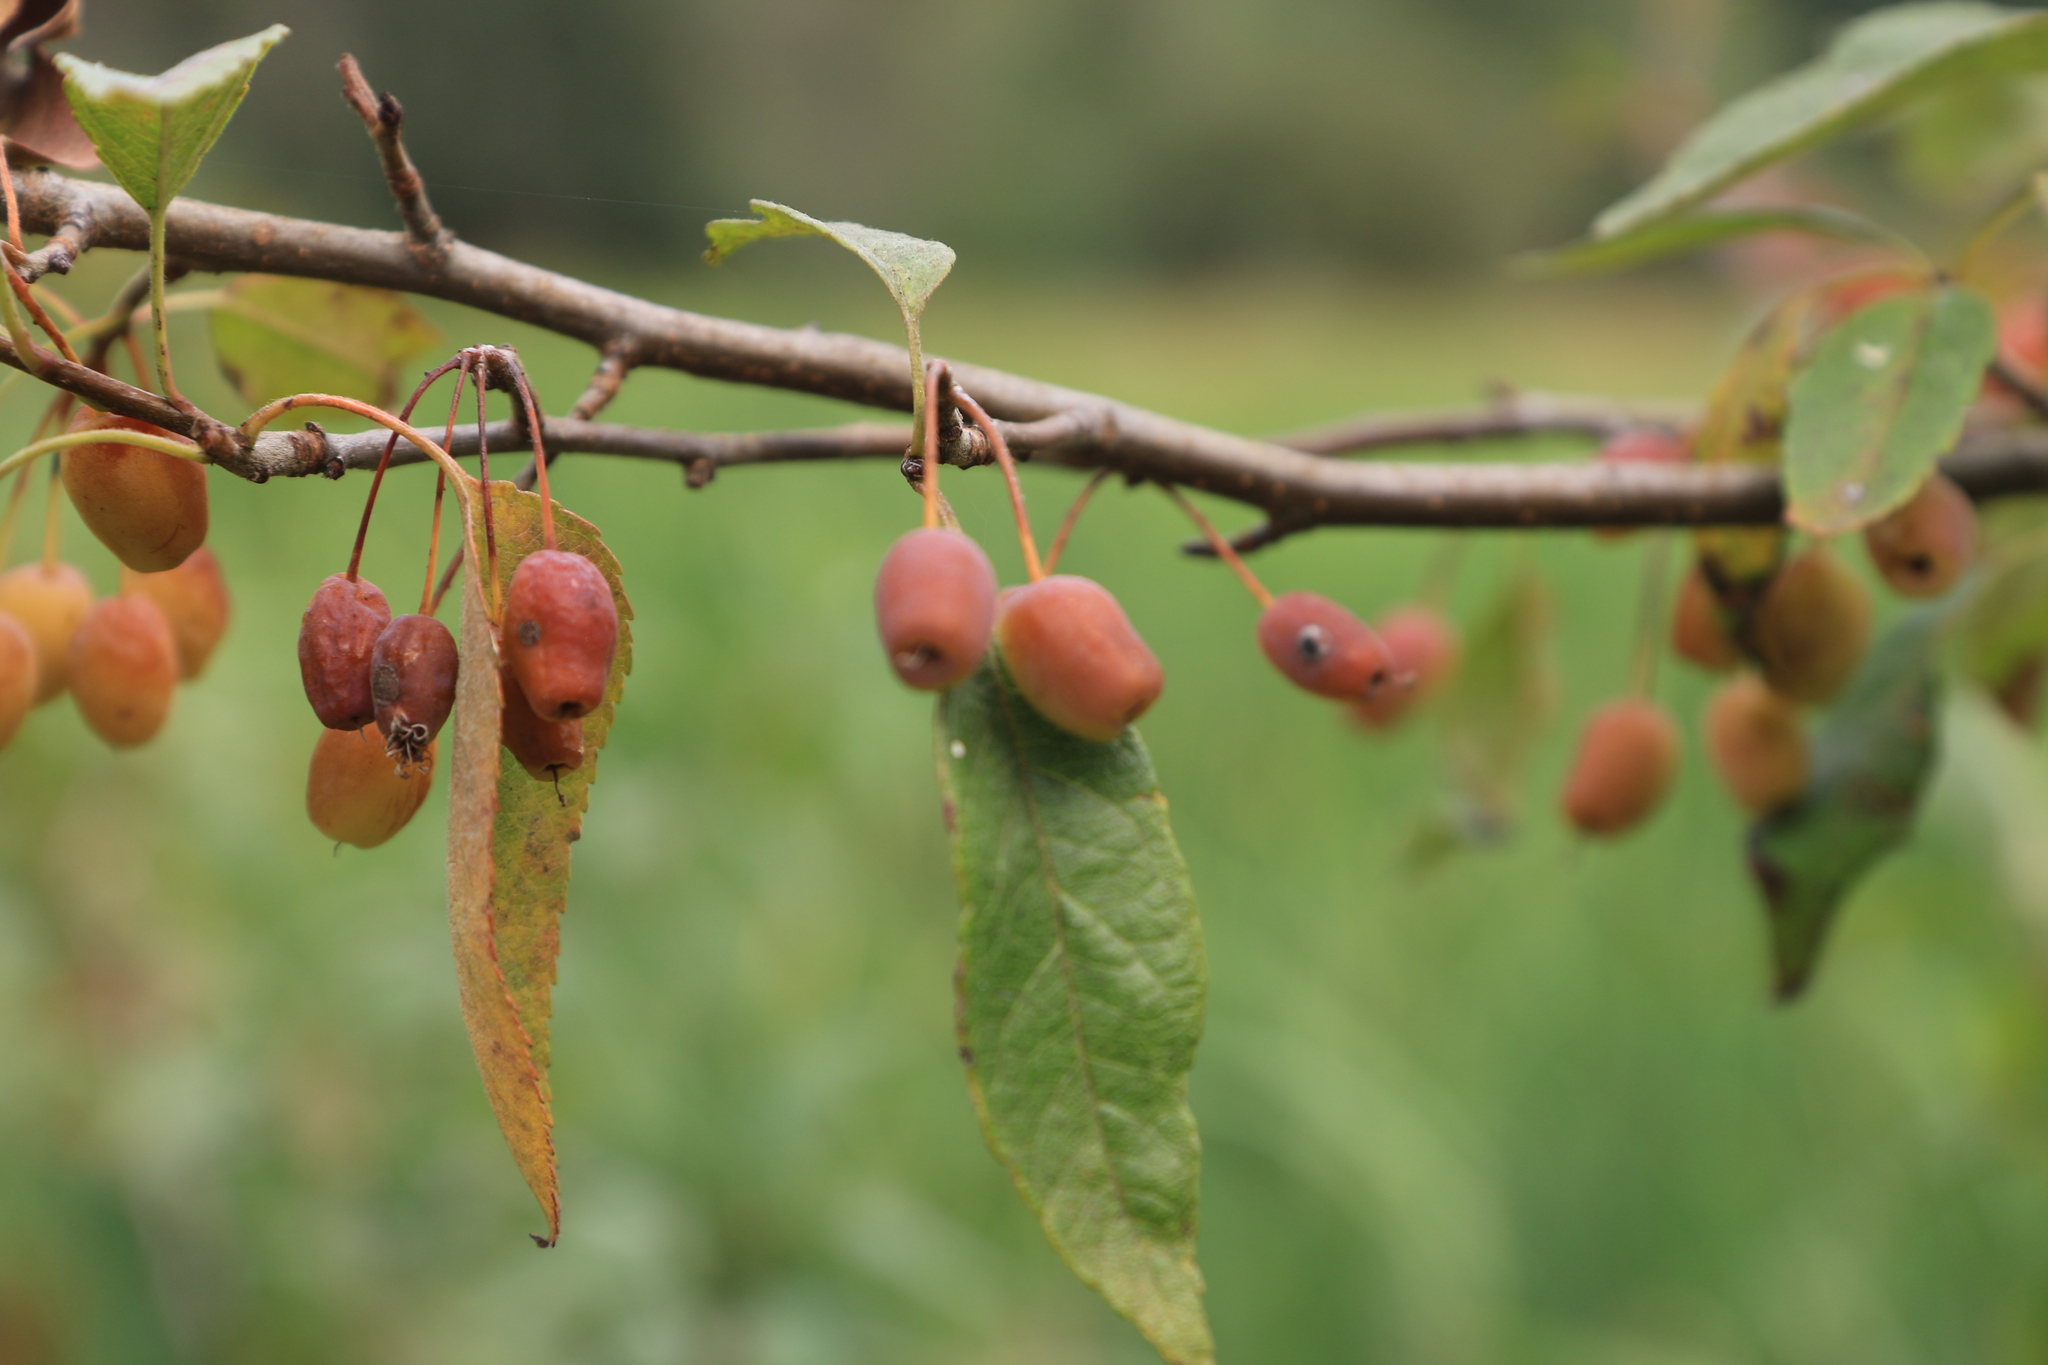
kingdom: Plantae
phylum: Tracheophyta
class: Magnoliopsida
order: Rosales
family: Rosaceae
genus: Malus
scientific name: Malus fusca
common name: Oregon crab apple
